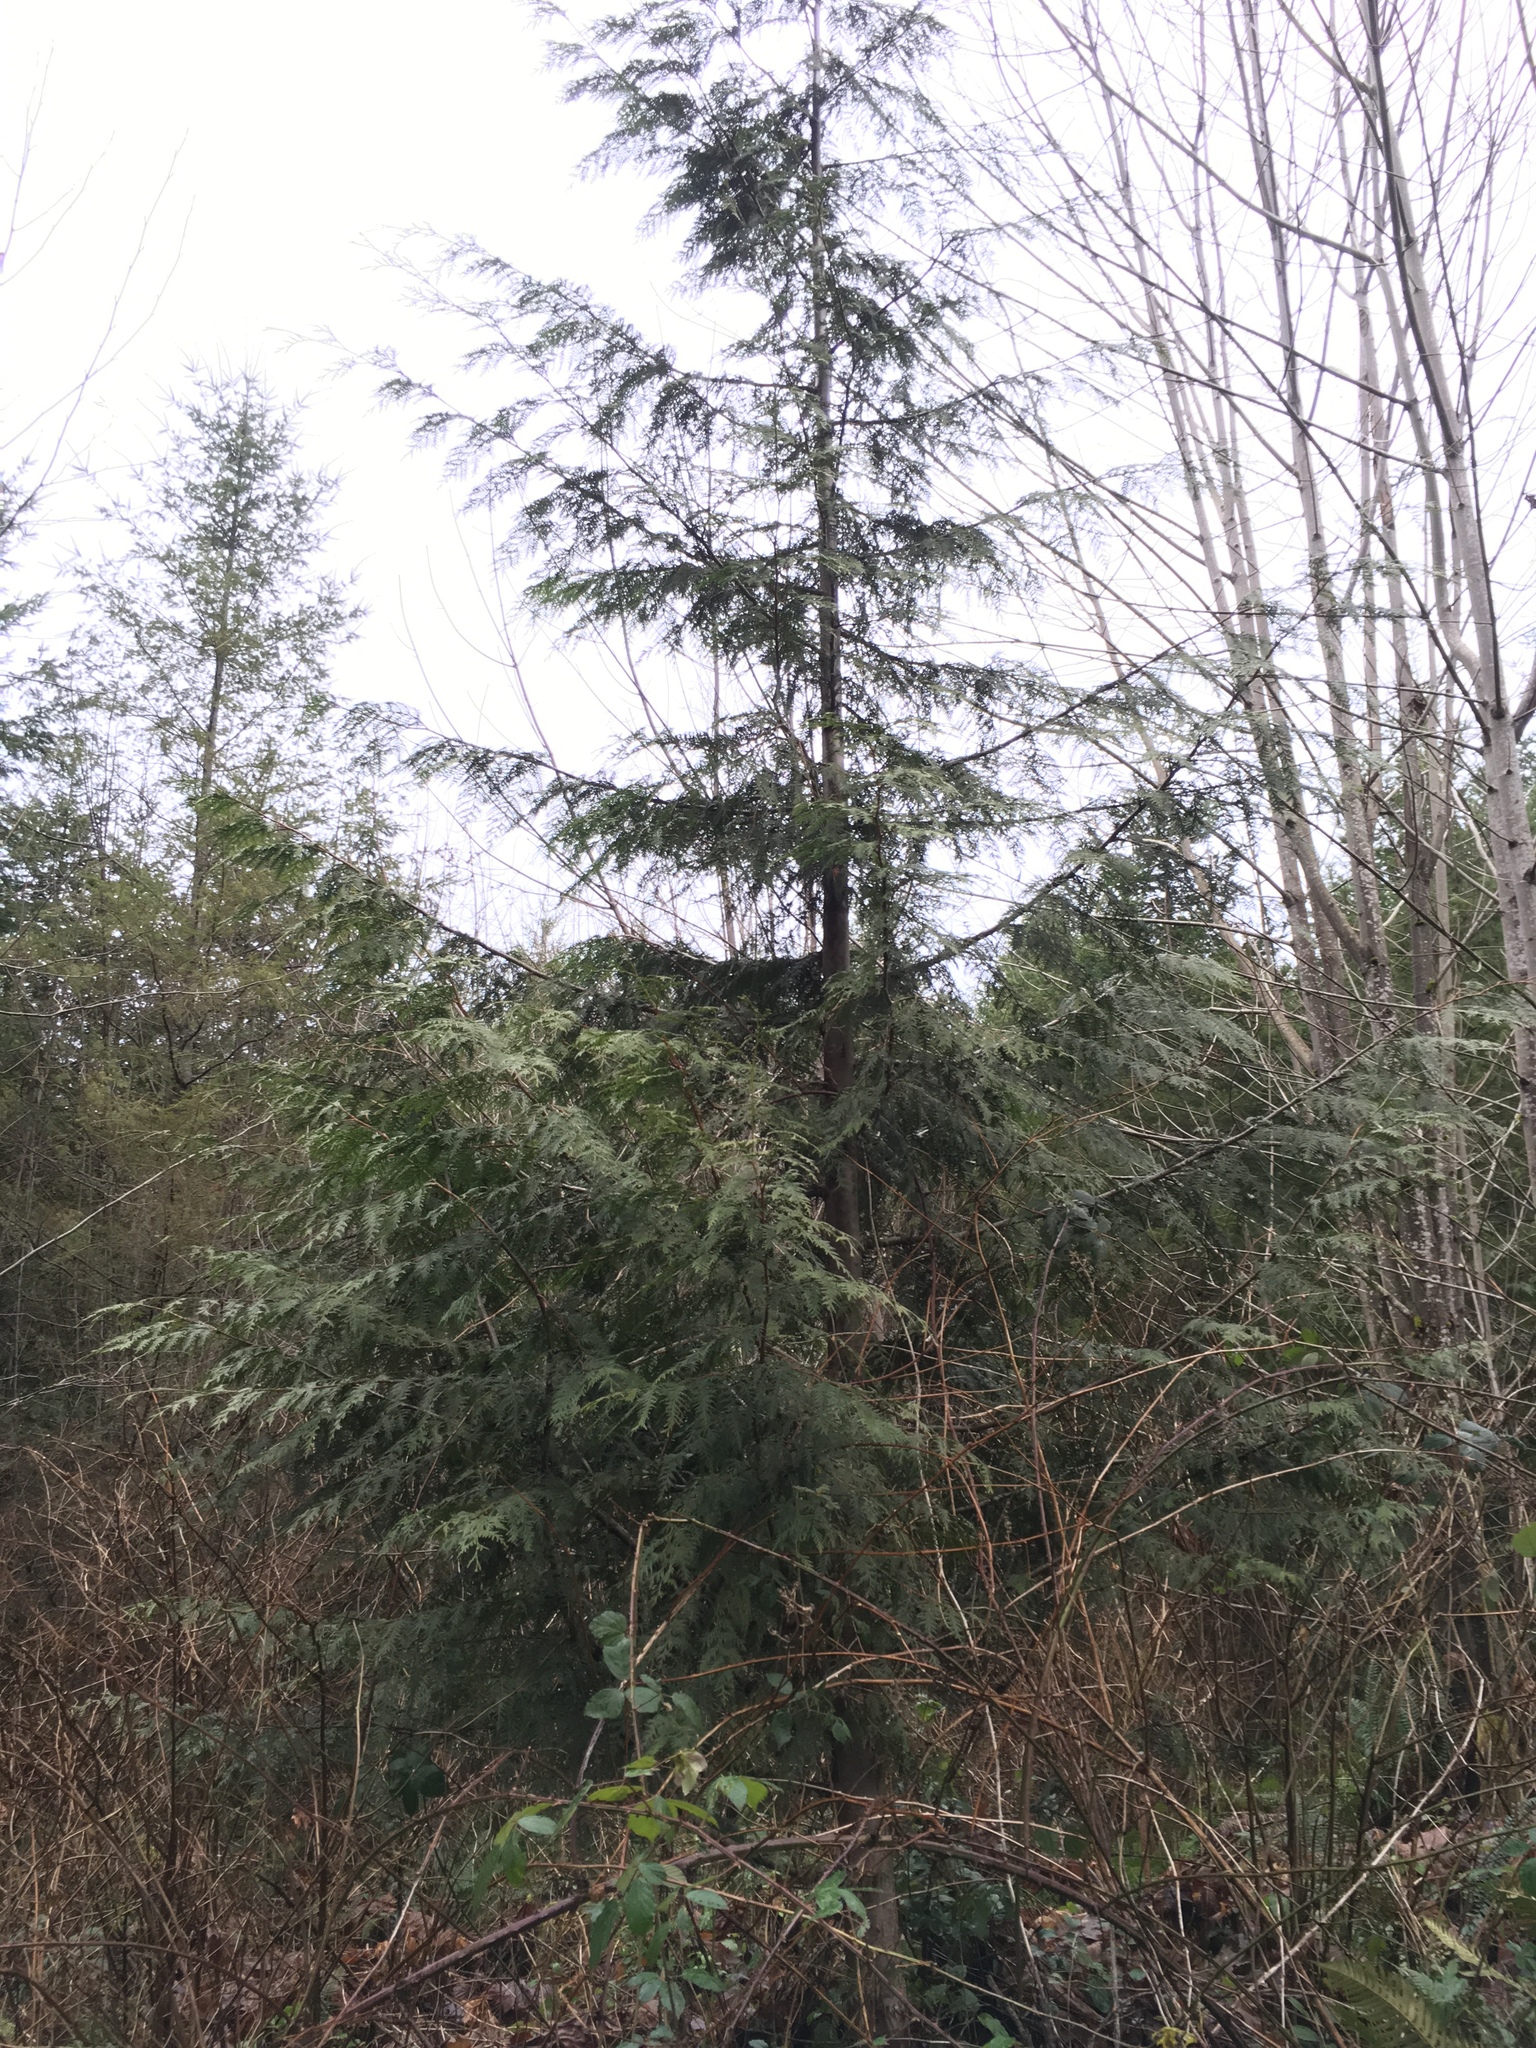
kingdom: Plantae
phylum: Tracheophyta
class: Pinopsida
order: Pinales
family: Cupressaceae
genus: Thuja
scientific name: Thuja plicata
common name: Western red-cedar
